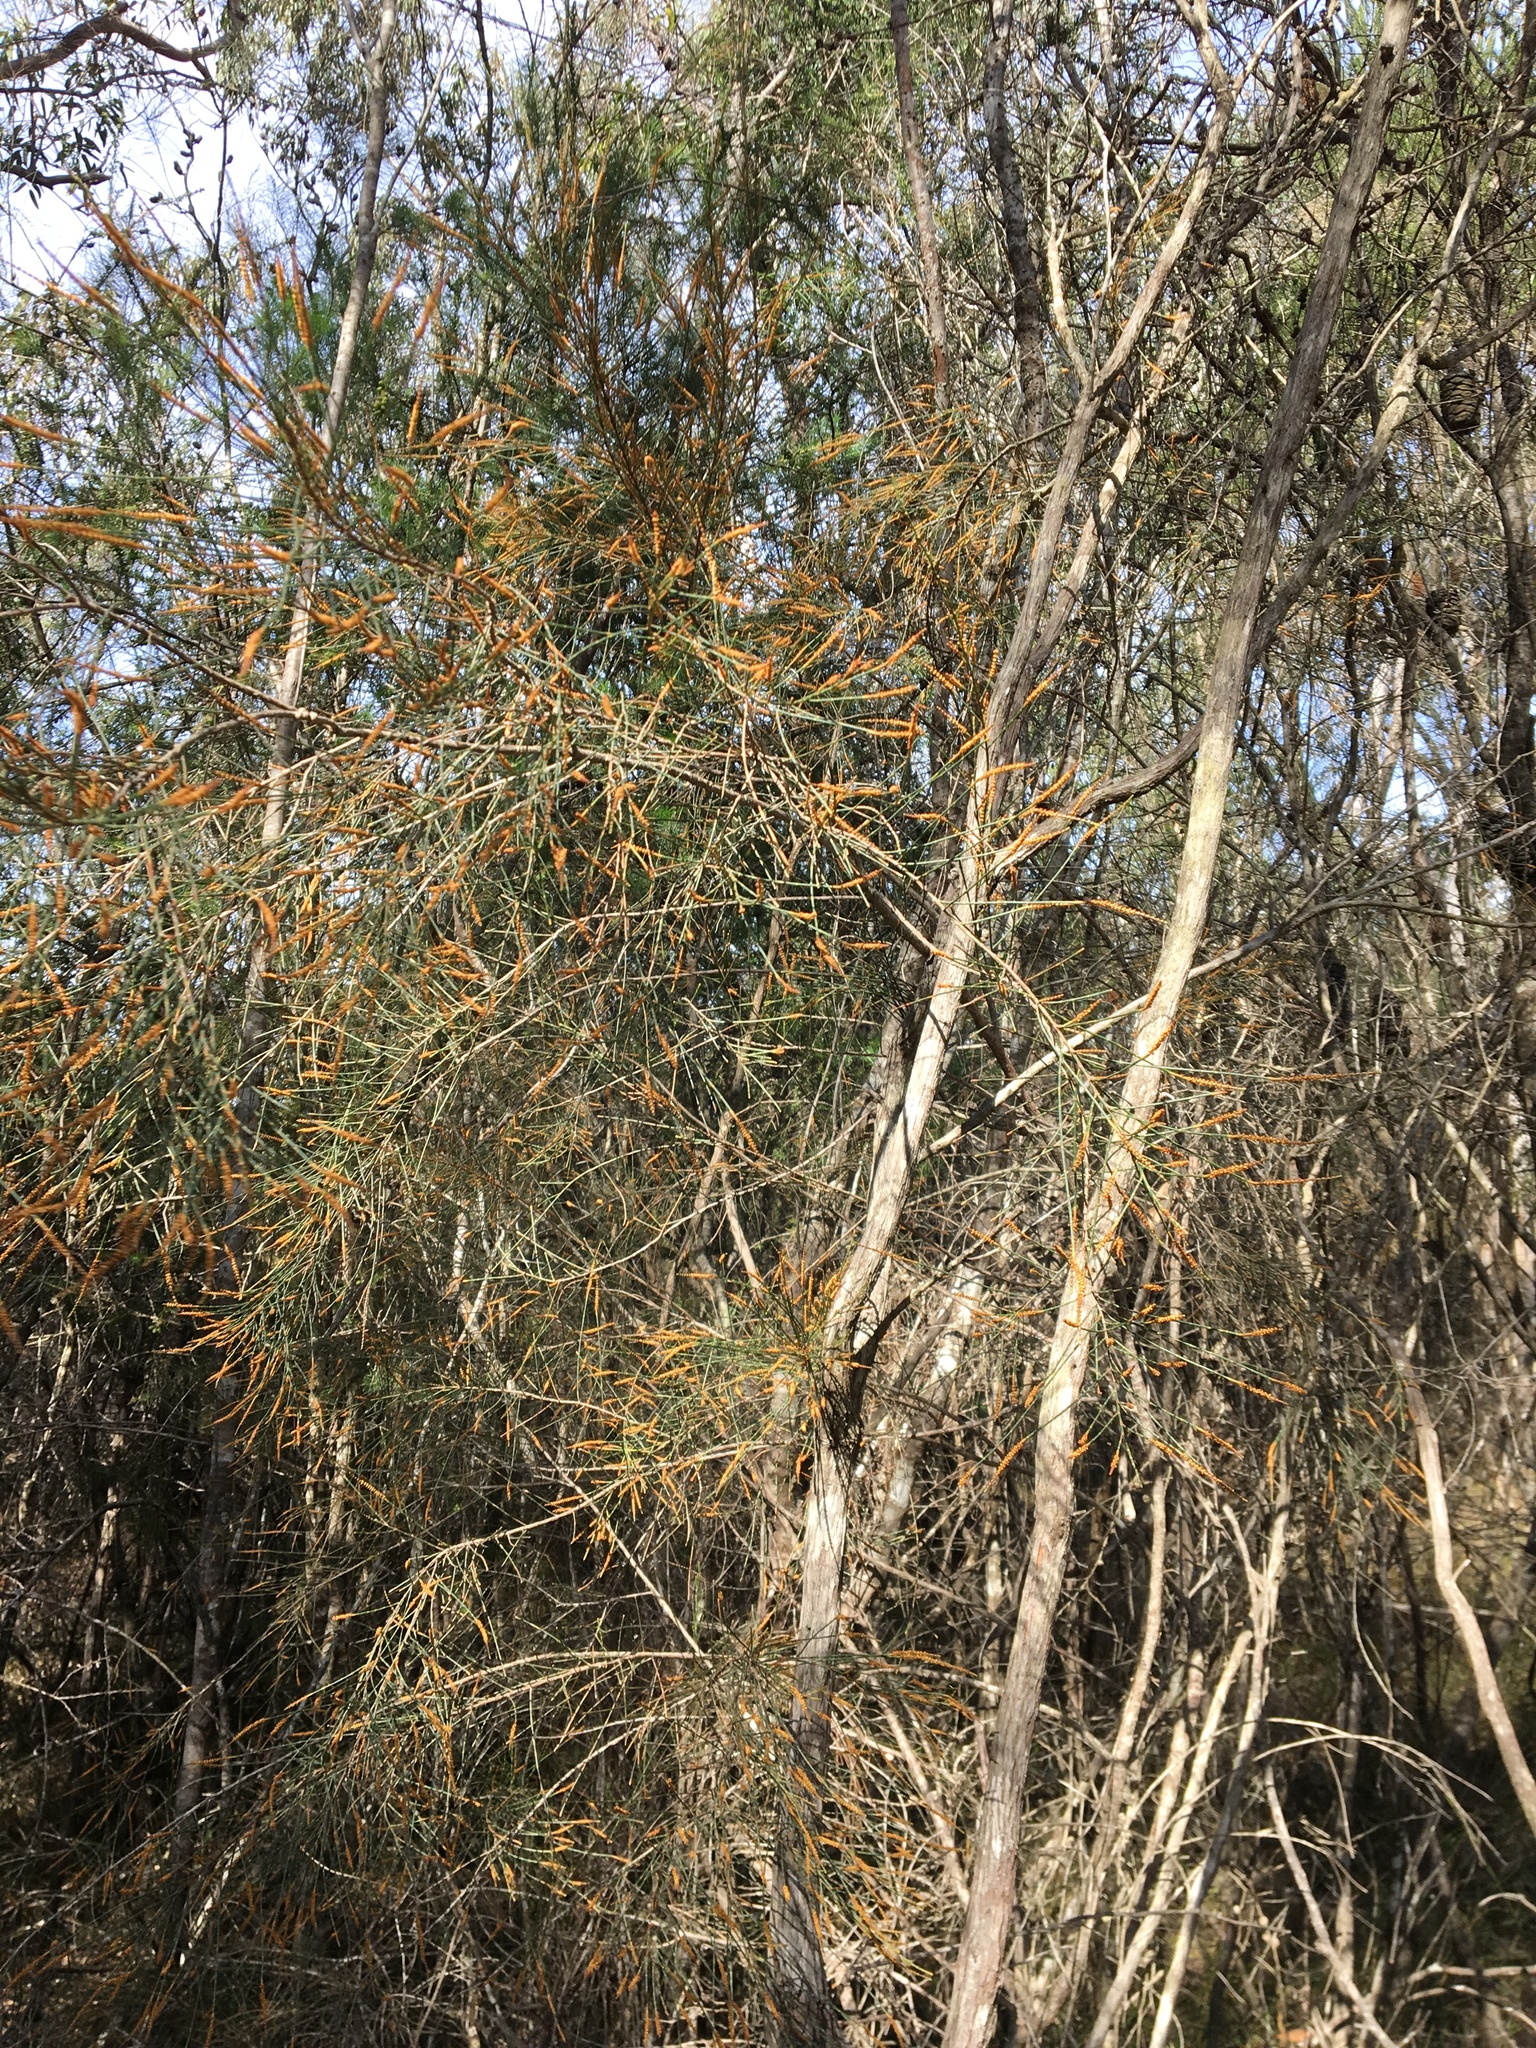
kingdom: Plantae
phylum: Tracheophyta
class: Magnoliopsida
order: Fagales
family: Casuarinaceae
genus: Allocasuarina
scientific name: Allocasuarina distyla
